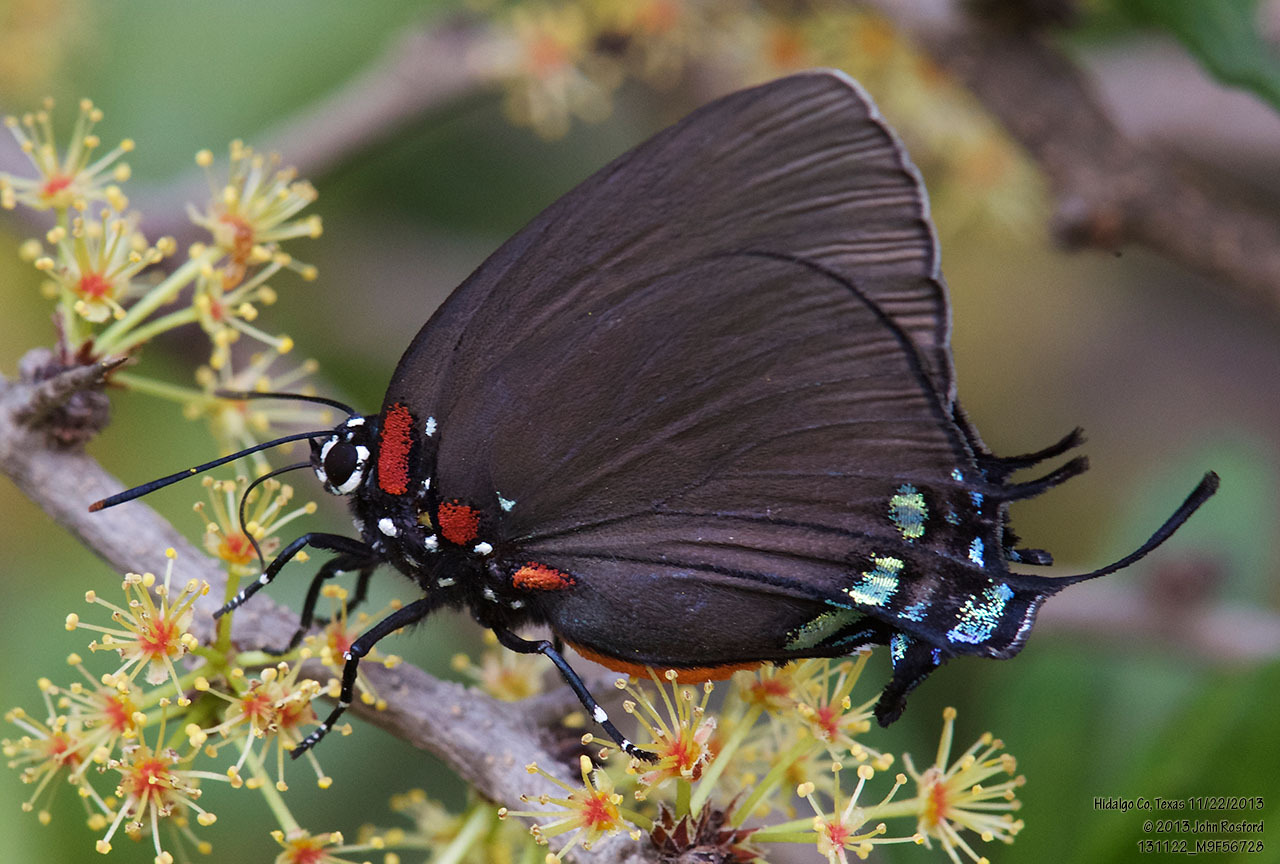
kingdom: Animalia
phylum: Arthropoda
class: Insecta
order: Lepidoptera
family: Lycaenidae
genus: Atlides
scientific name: Atlides halesus
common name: Great purple hairstreak
